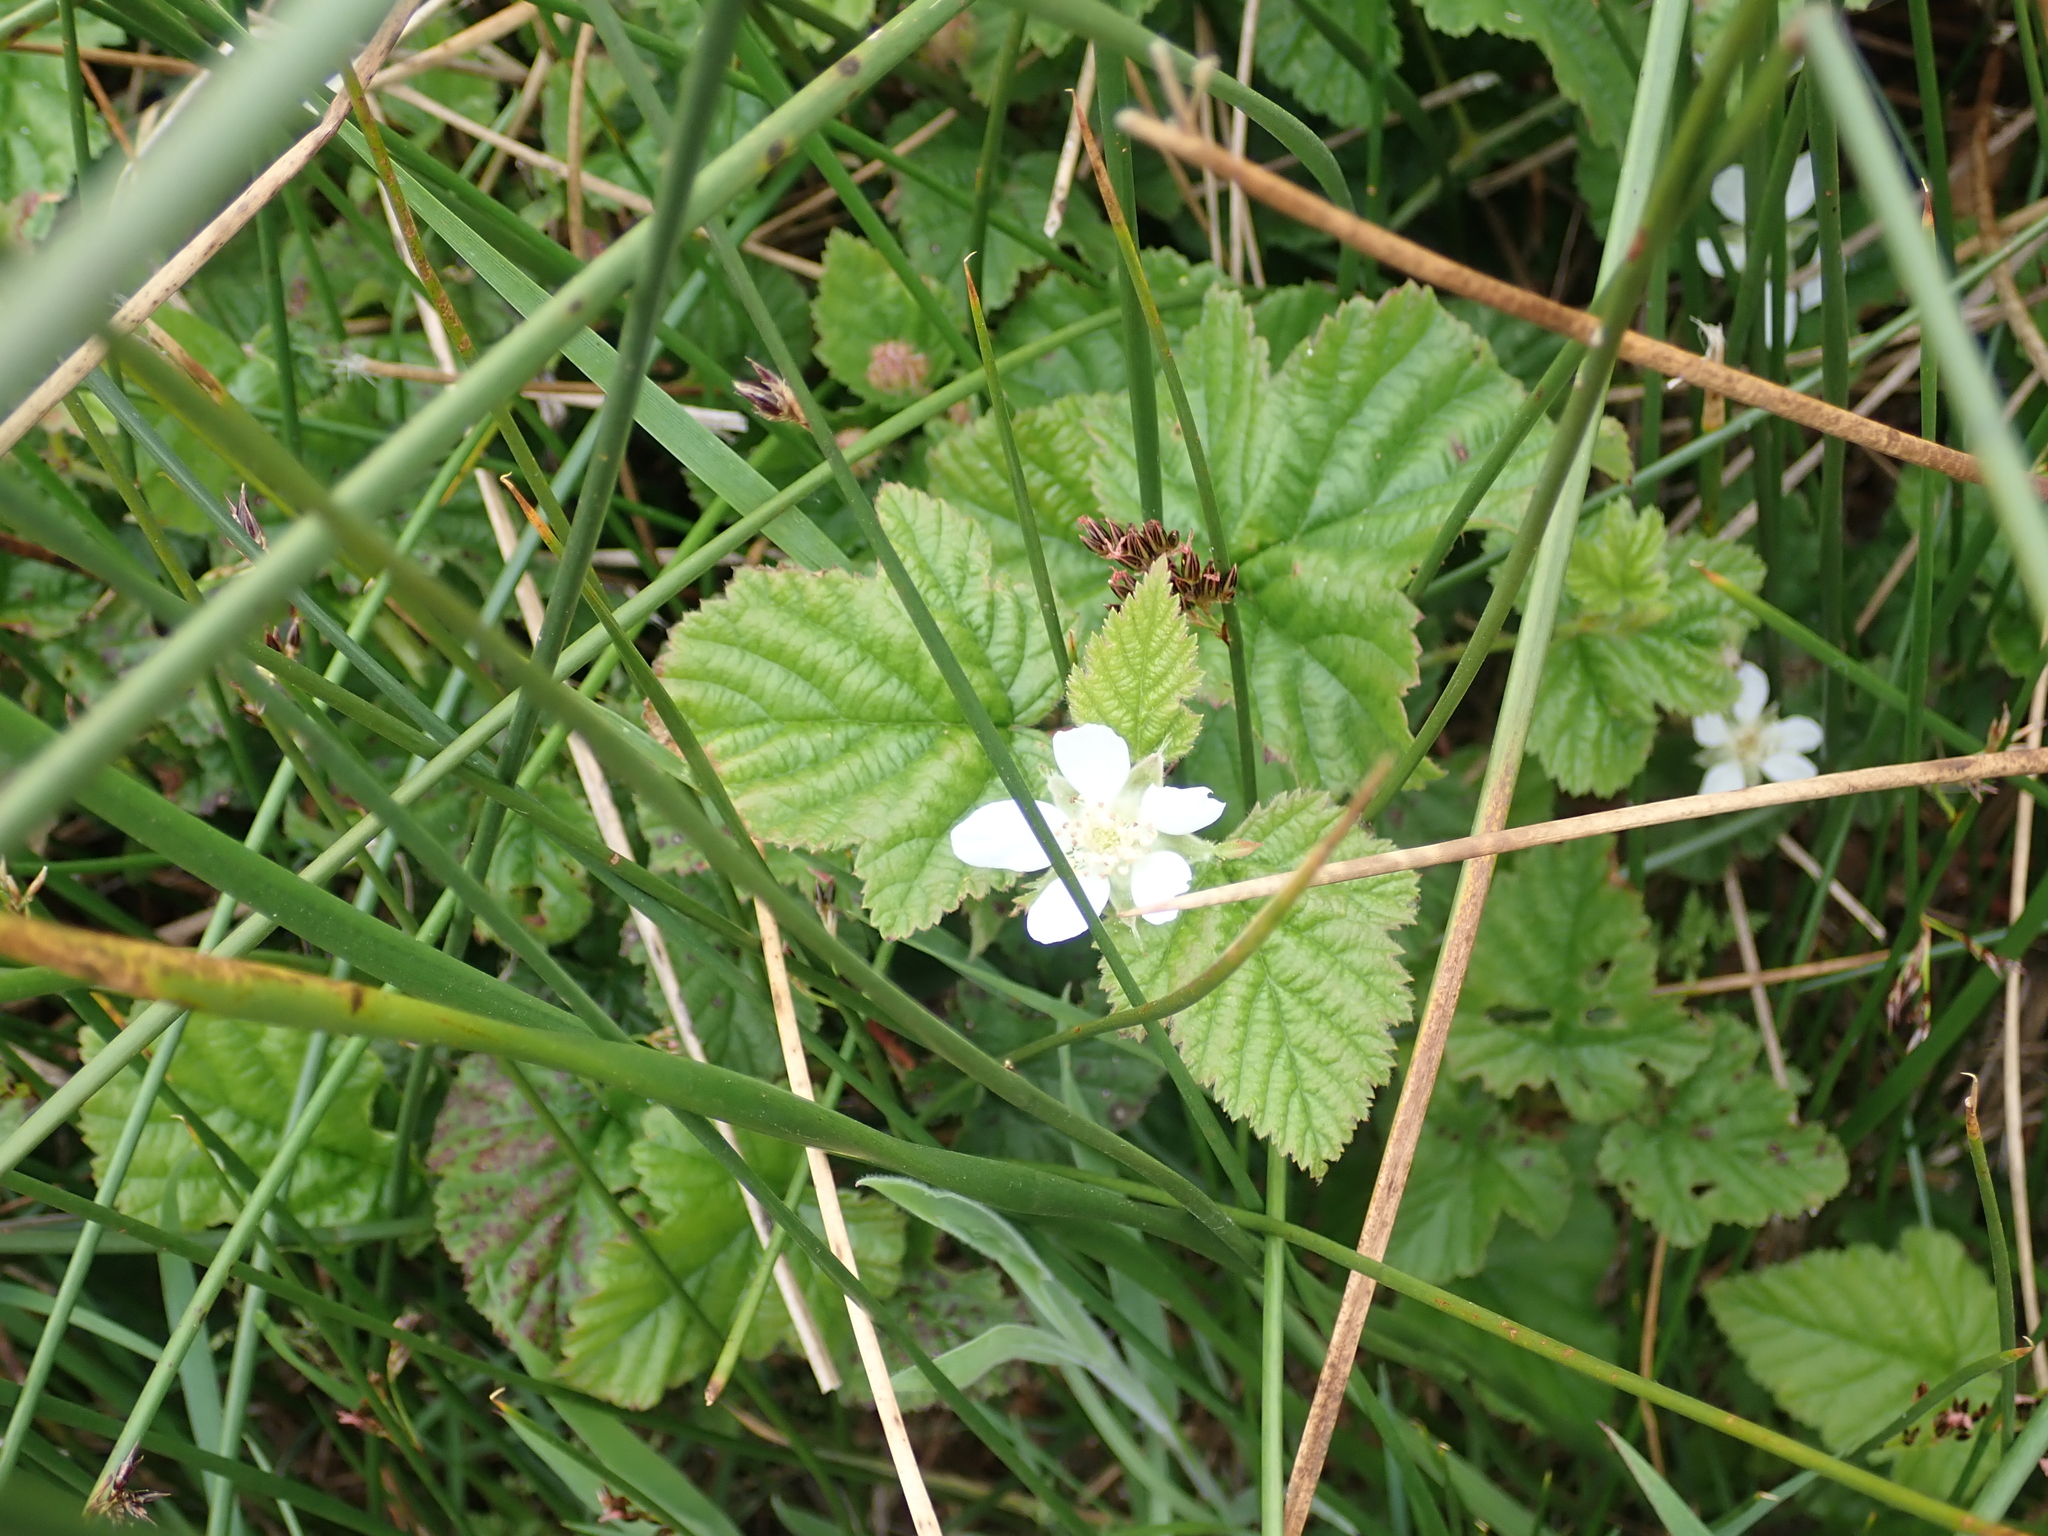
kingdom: Plantae
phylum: Tracheophyta
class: Magnoliopsida
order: Rosales
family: Rosaceae
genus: Rubus
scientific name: Rubus ursinus
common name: Pacific blackberry
